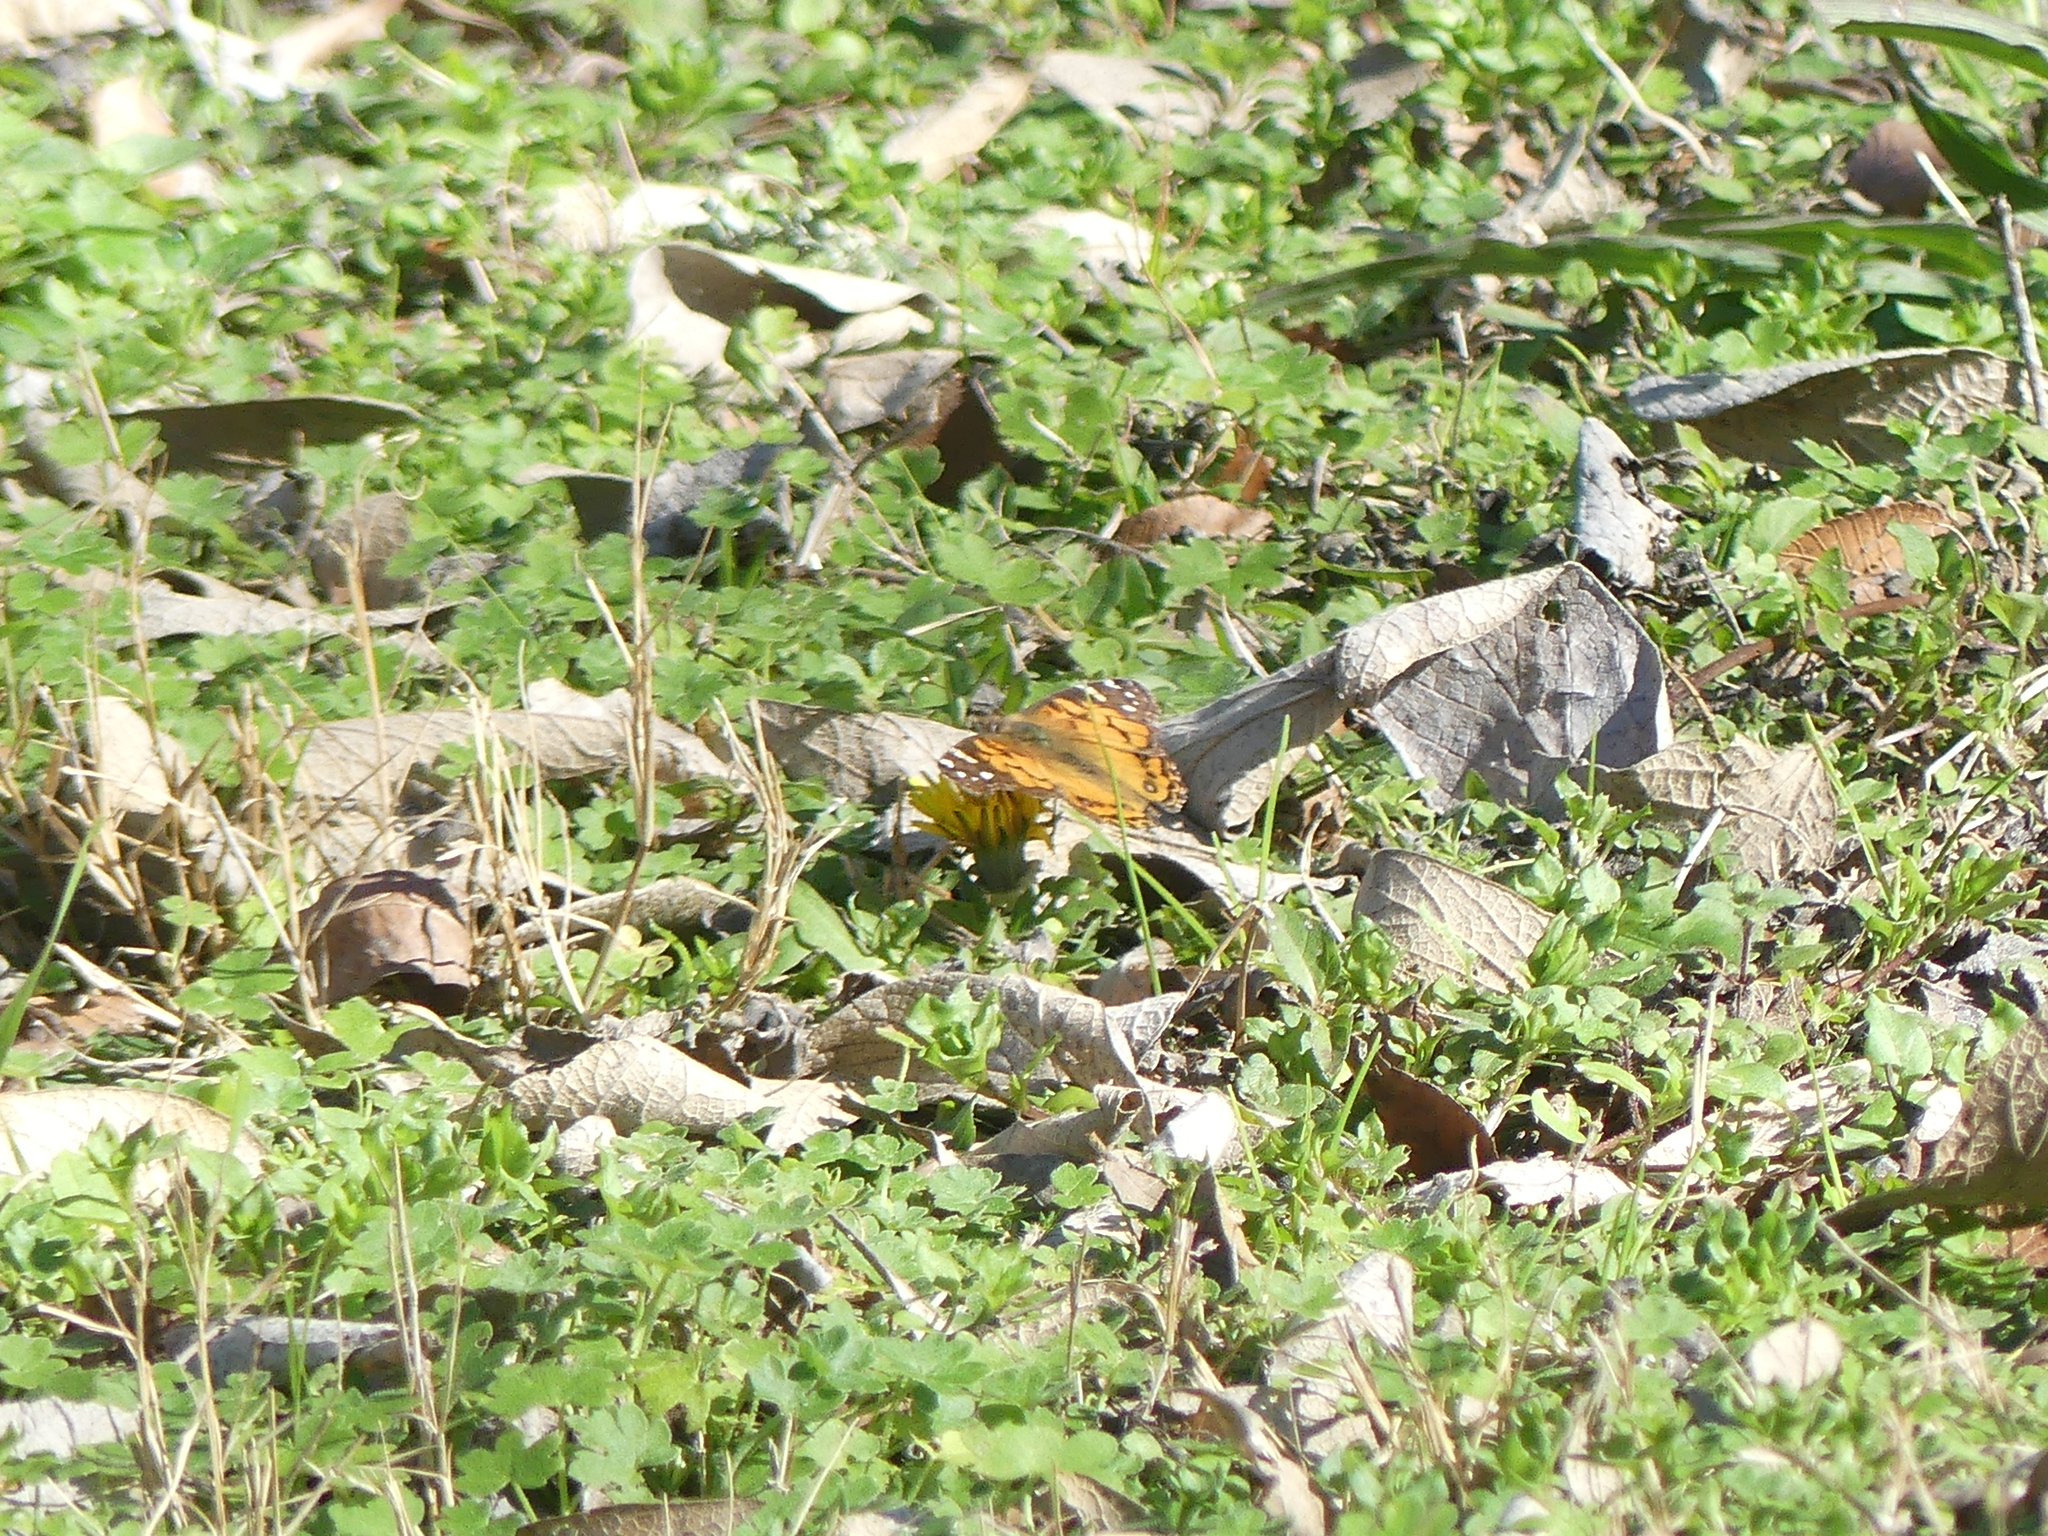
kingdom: Animalia
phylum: Arthropoda
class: Insecta
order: Lepidoptera
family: Nymphalidae
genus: Vanessa
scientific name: Vanessa virginiensis
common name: American lady
